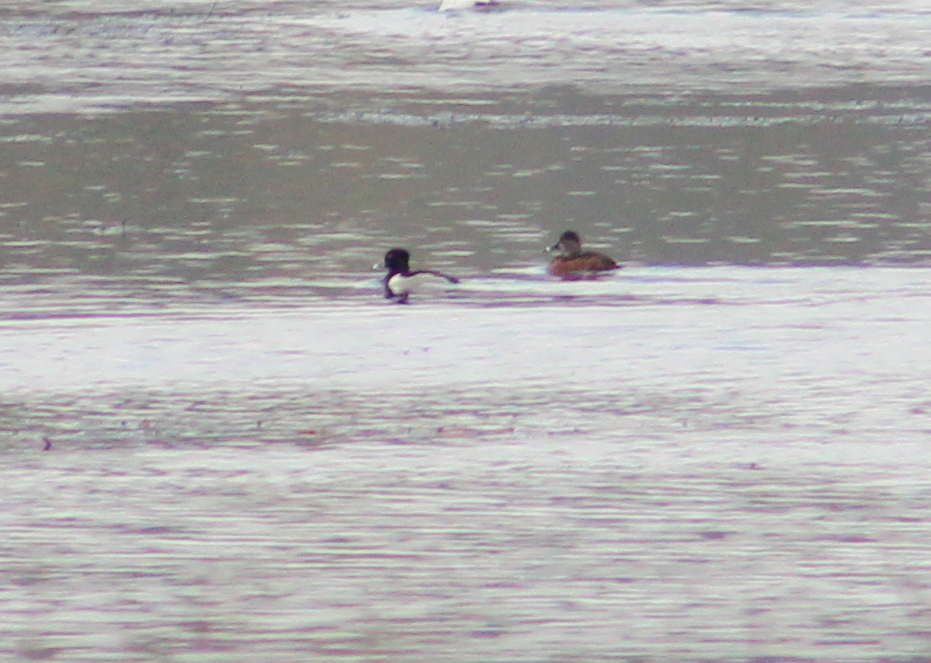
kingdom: Animalia
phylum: Chordata
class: Aves
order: Anseriformes
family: Anatidae
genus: Aythya
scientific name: Aythya collaris
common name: Ring-necked duck
